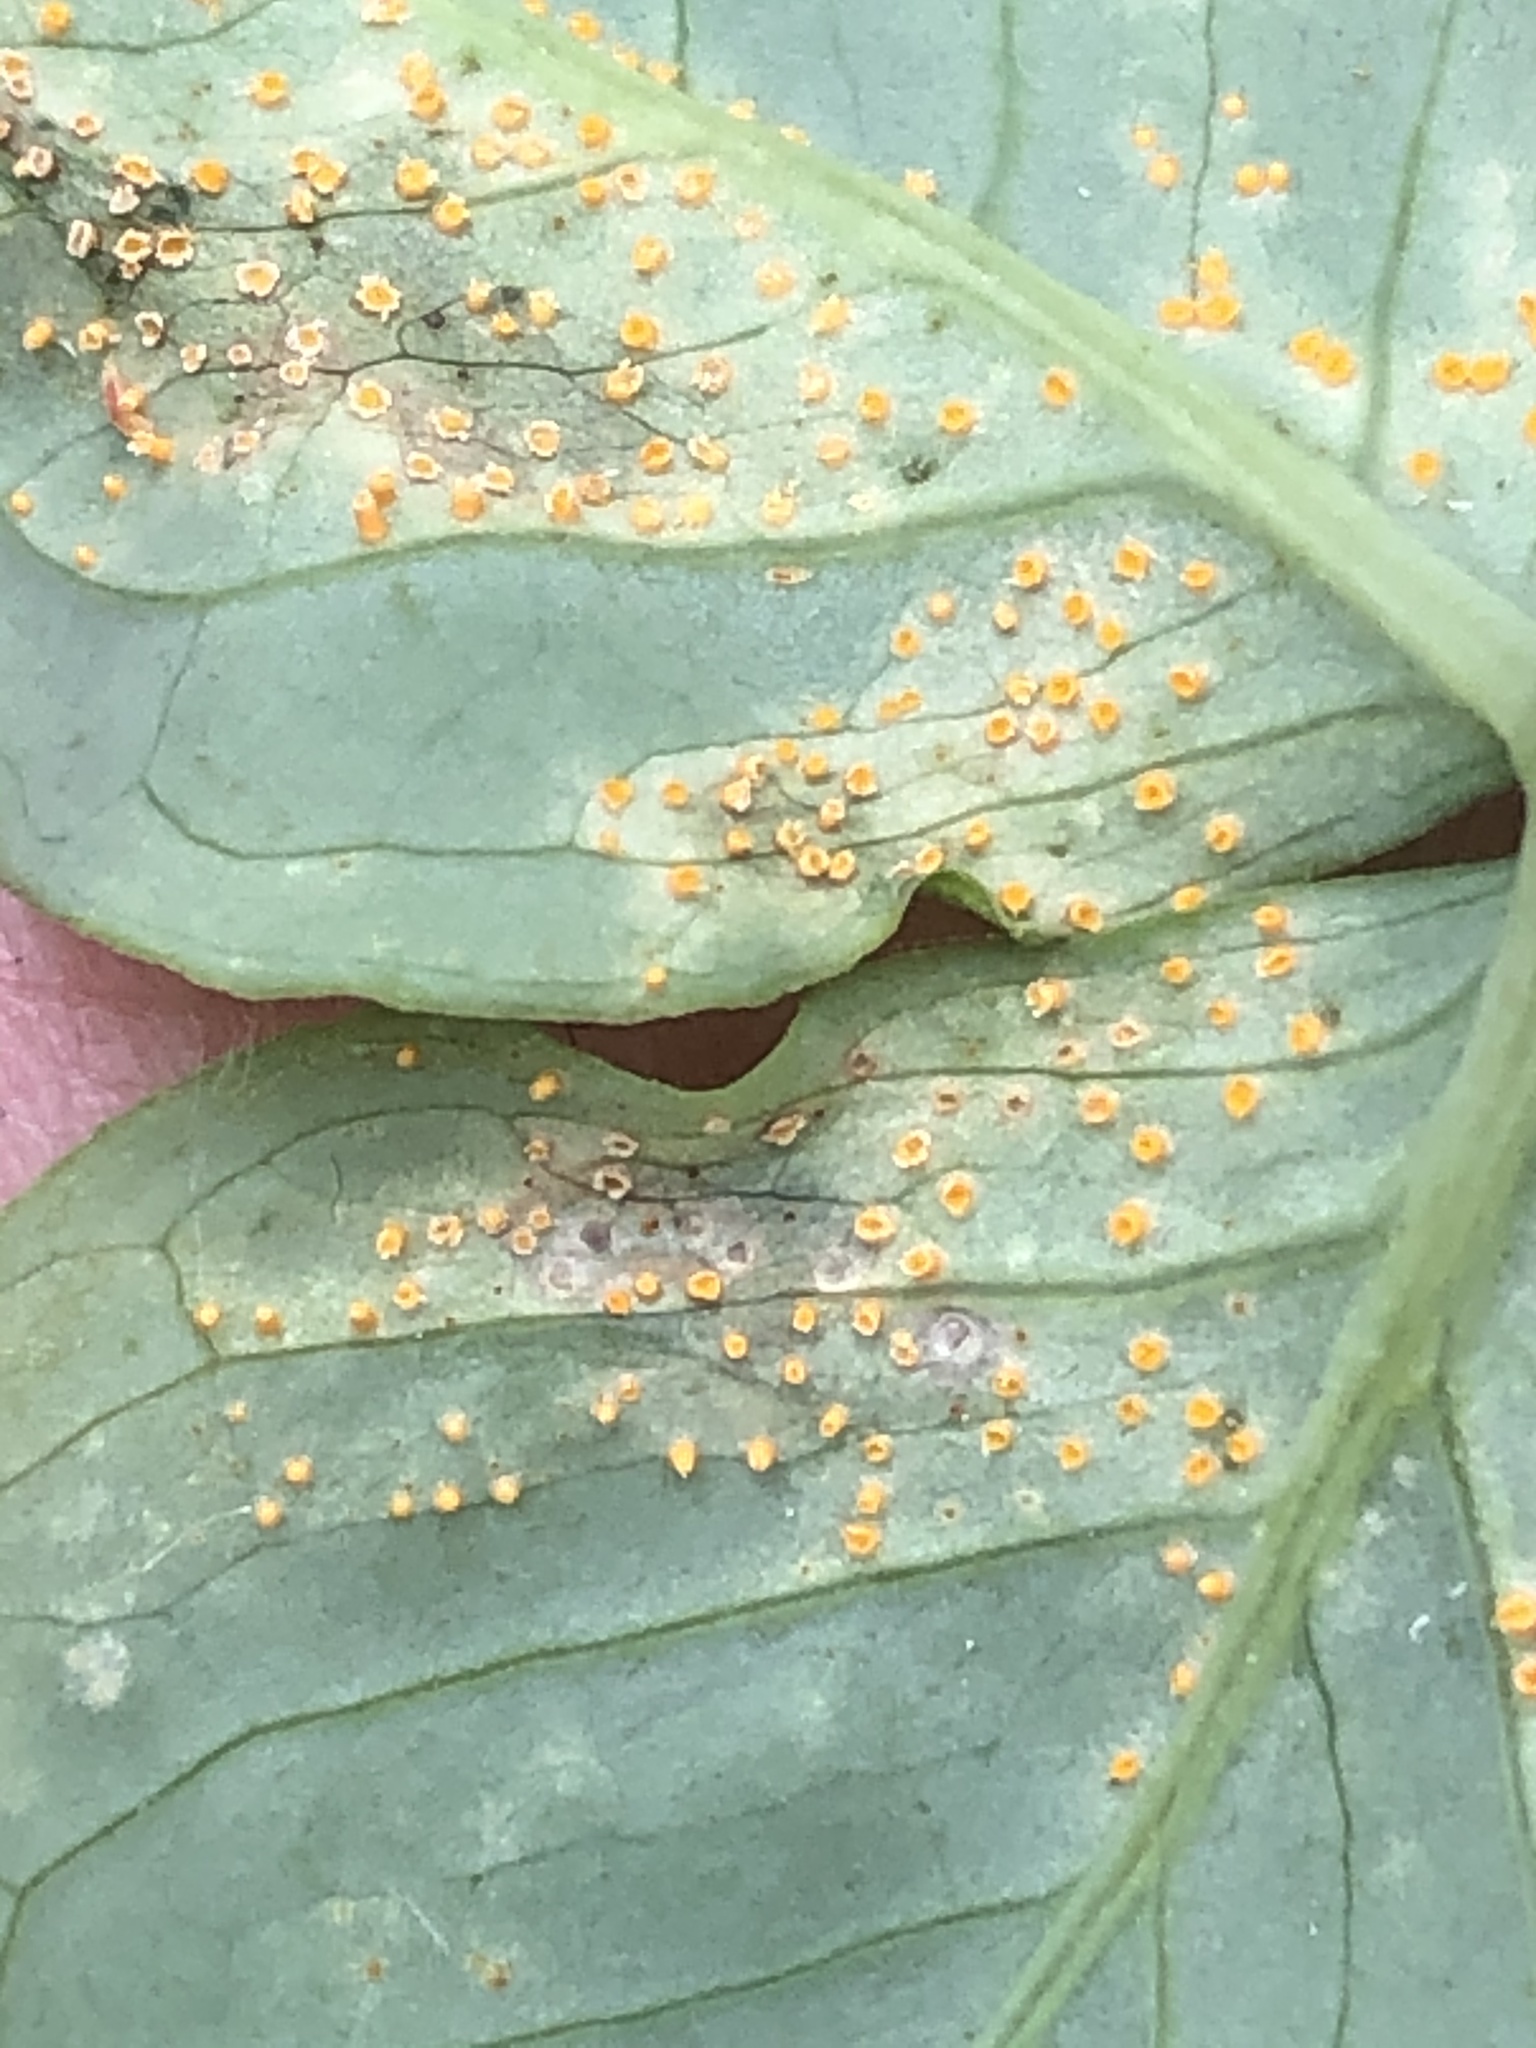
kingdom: Fungi
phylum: Basidiomycota
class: Pucciniomycetes
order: Pucciniales
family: Pucciniaceae
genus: Uromyces
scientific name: Uromyces ari-triphylli
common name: Jack-in-the-pulpit rust
